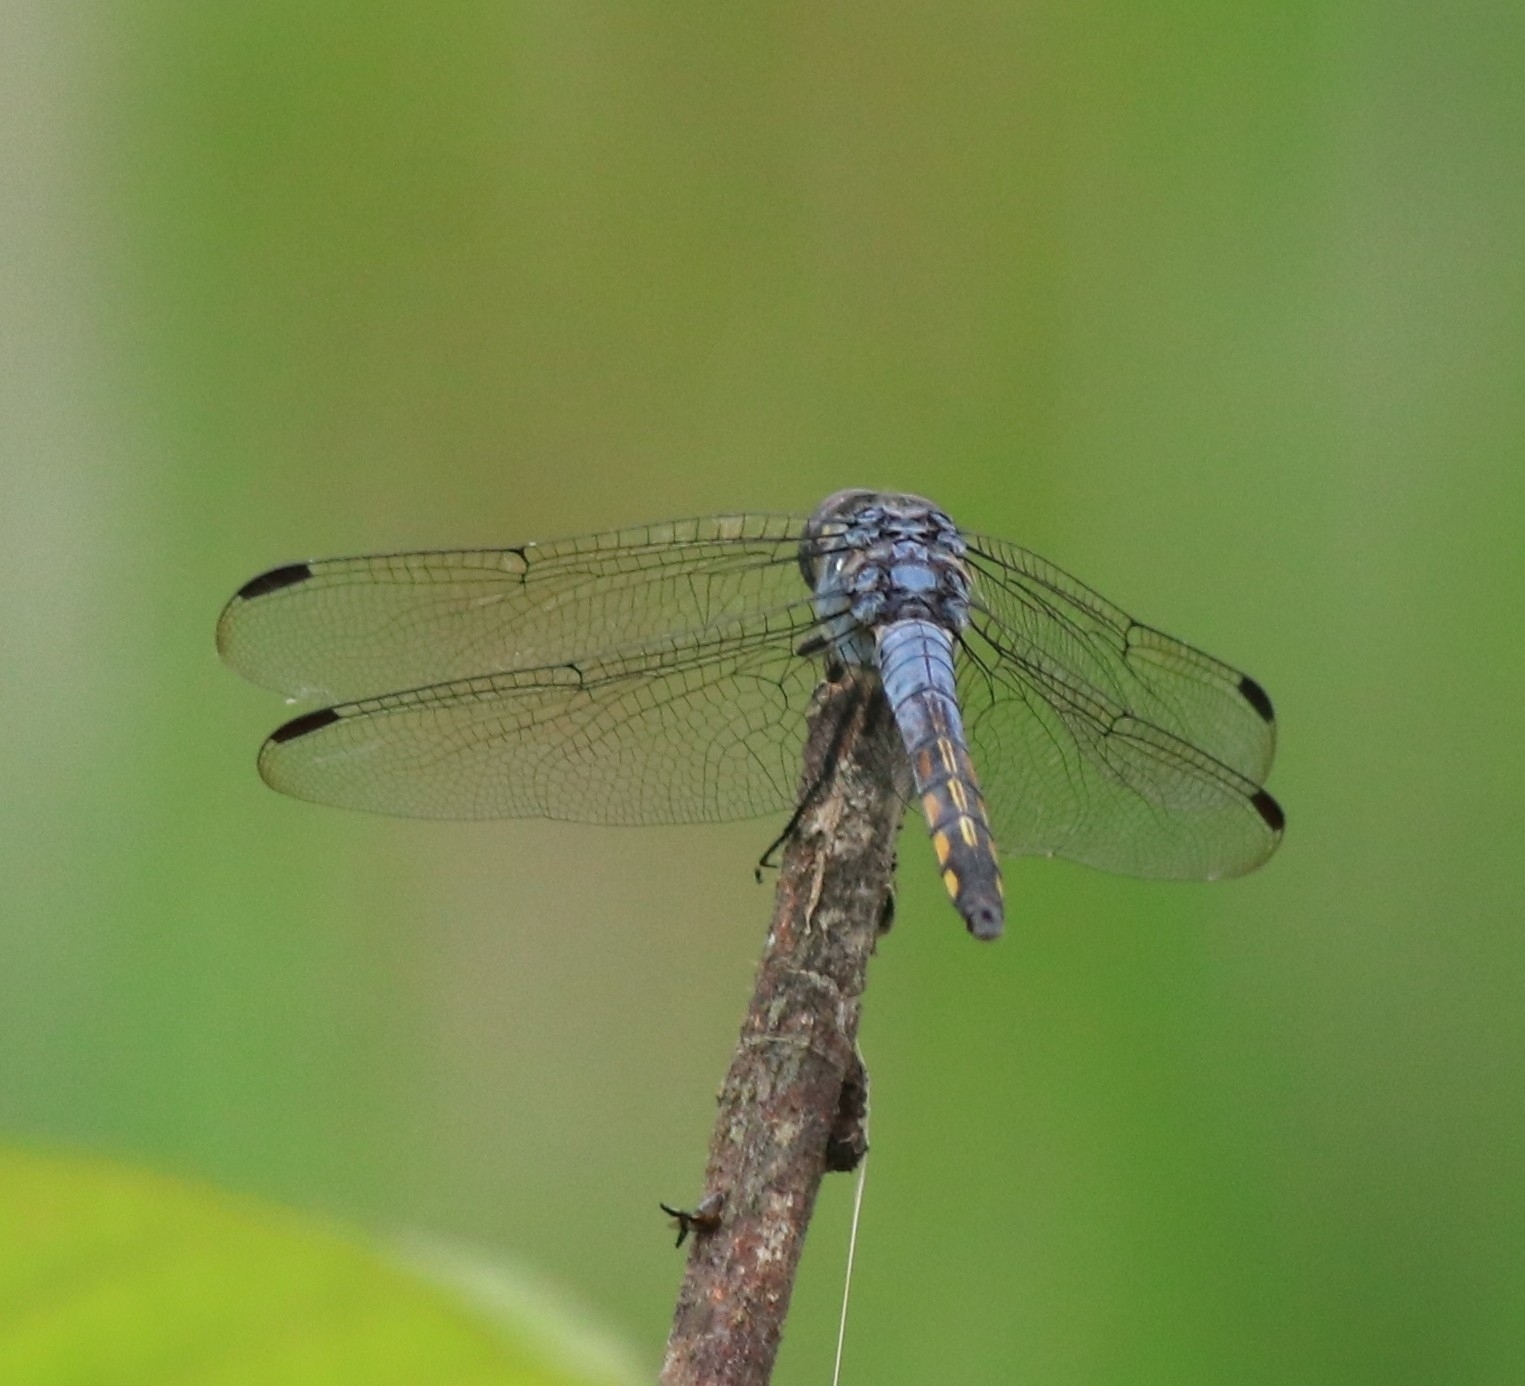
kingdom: Animalia
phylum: Arthropoda
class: Insecta
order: Odonata
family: Libellulidae
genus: Potamarcha
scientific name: Potamarcha congener
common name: Blue chaser
